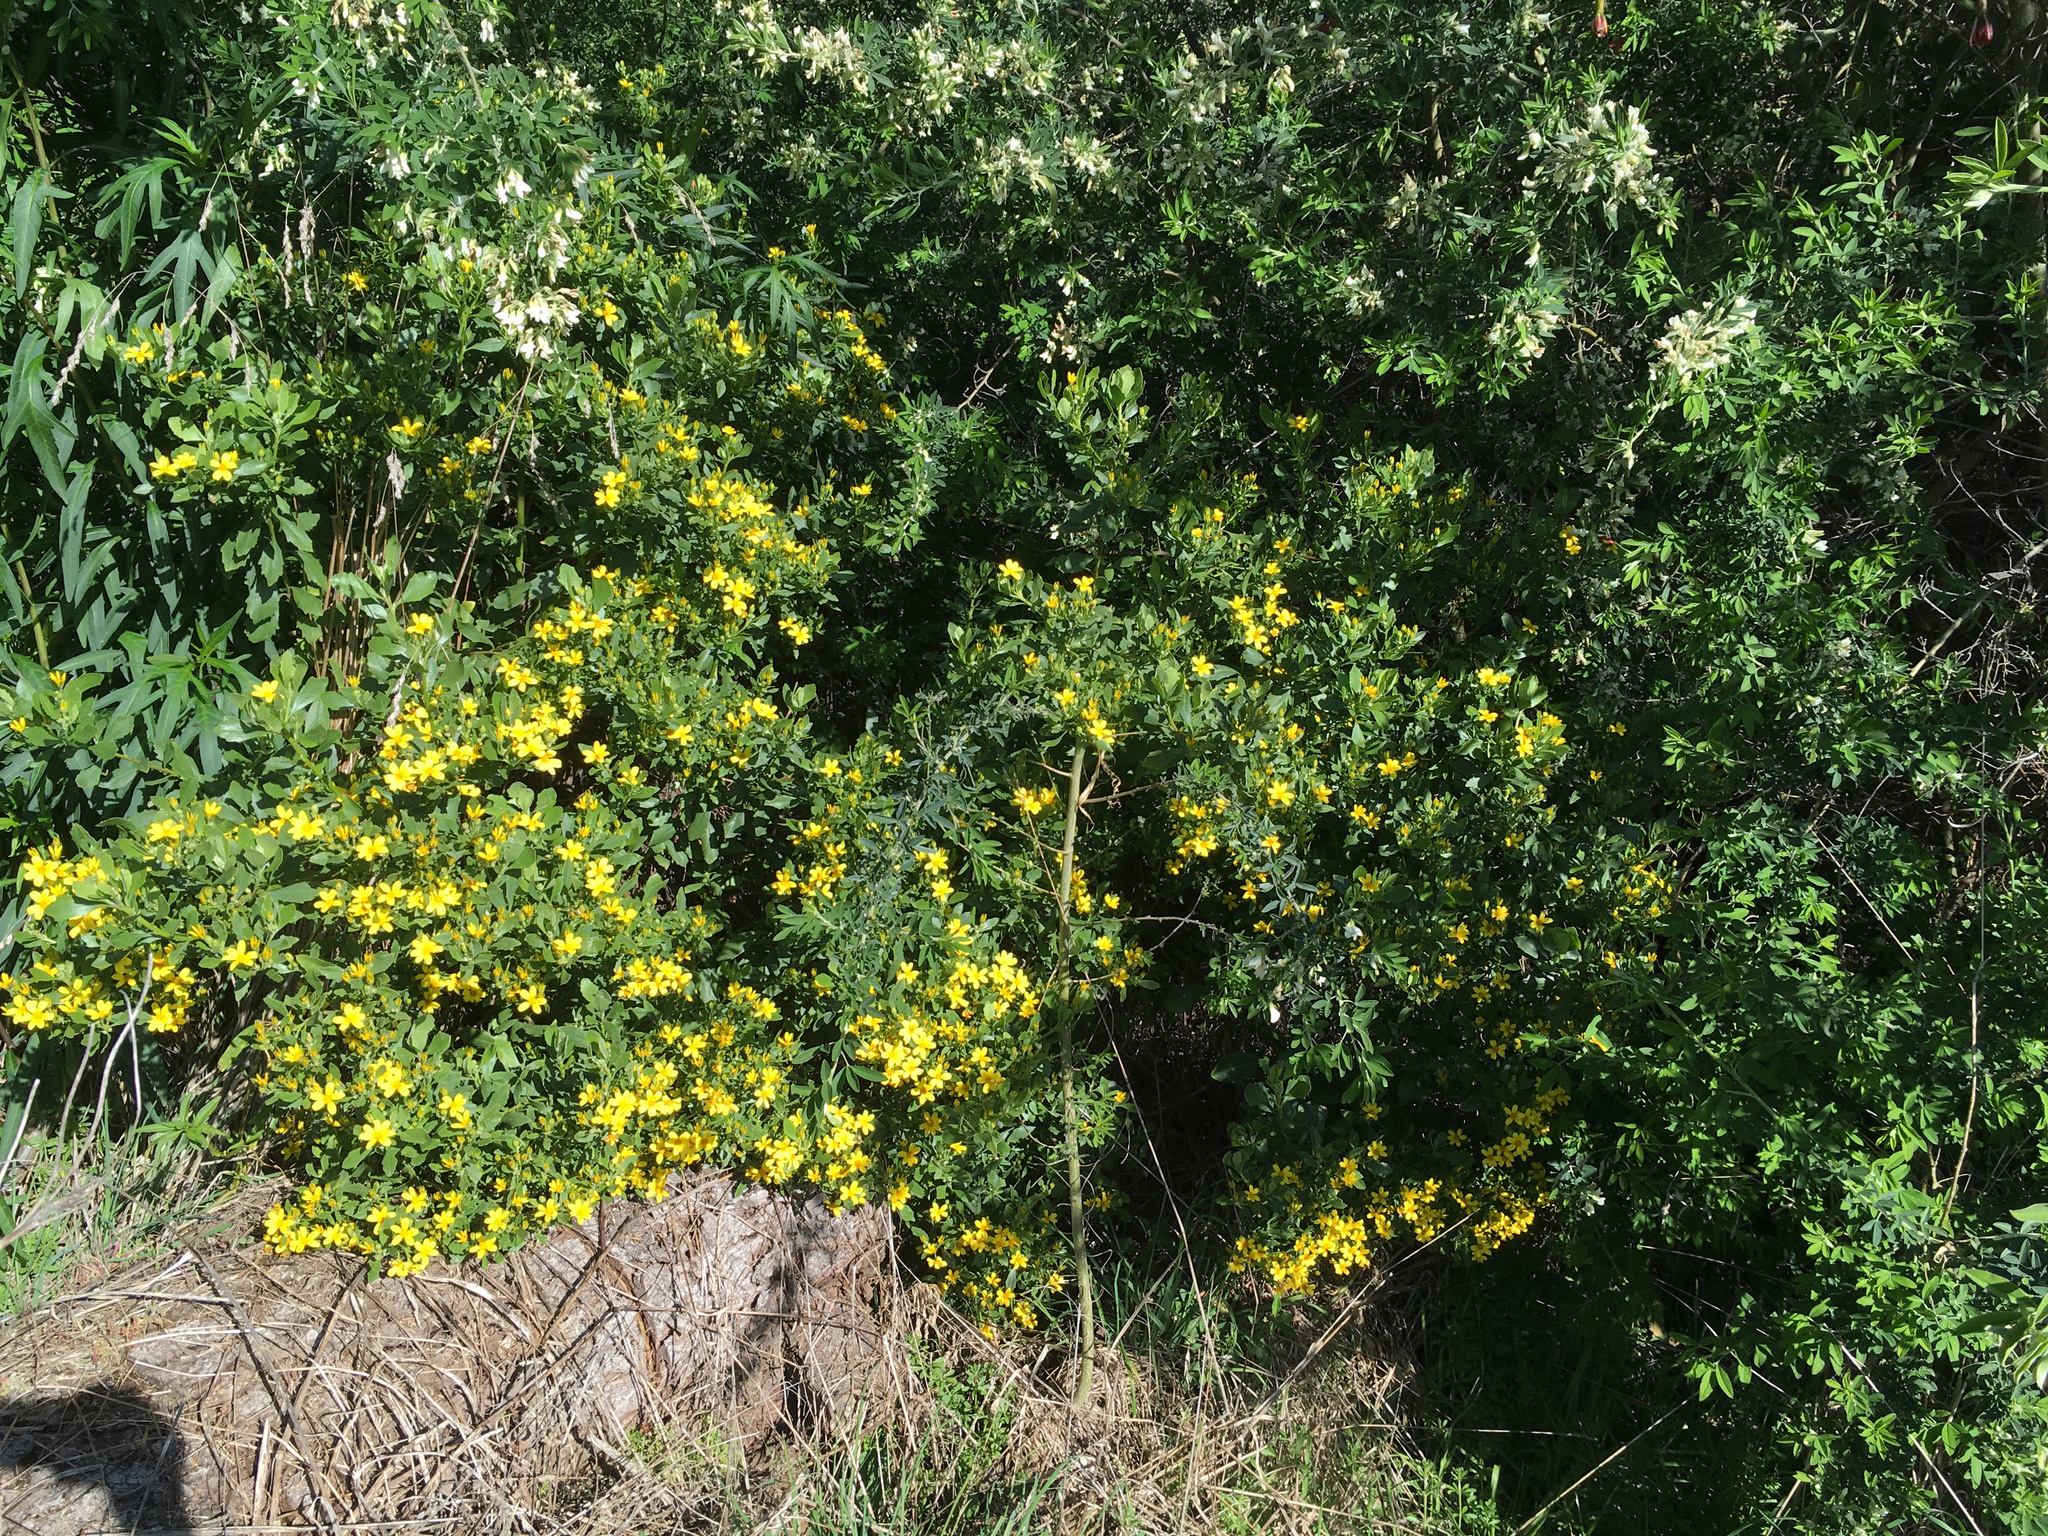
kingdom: Plantae
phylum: Tracheophyta
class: Magnoliopsida
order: Asterales
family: Asteraceae
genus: Osteospermum
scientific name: Osteospermum moniliferum
